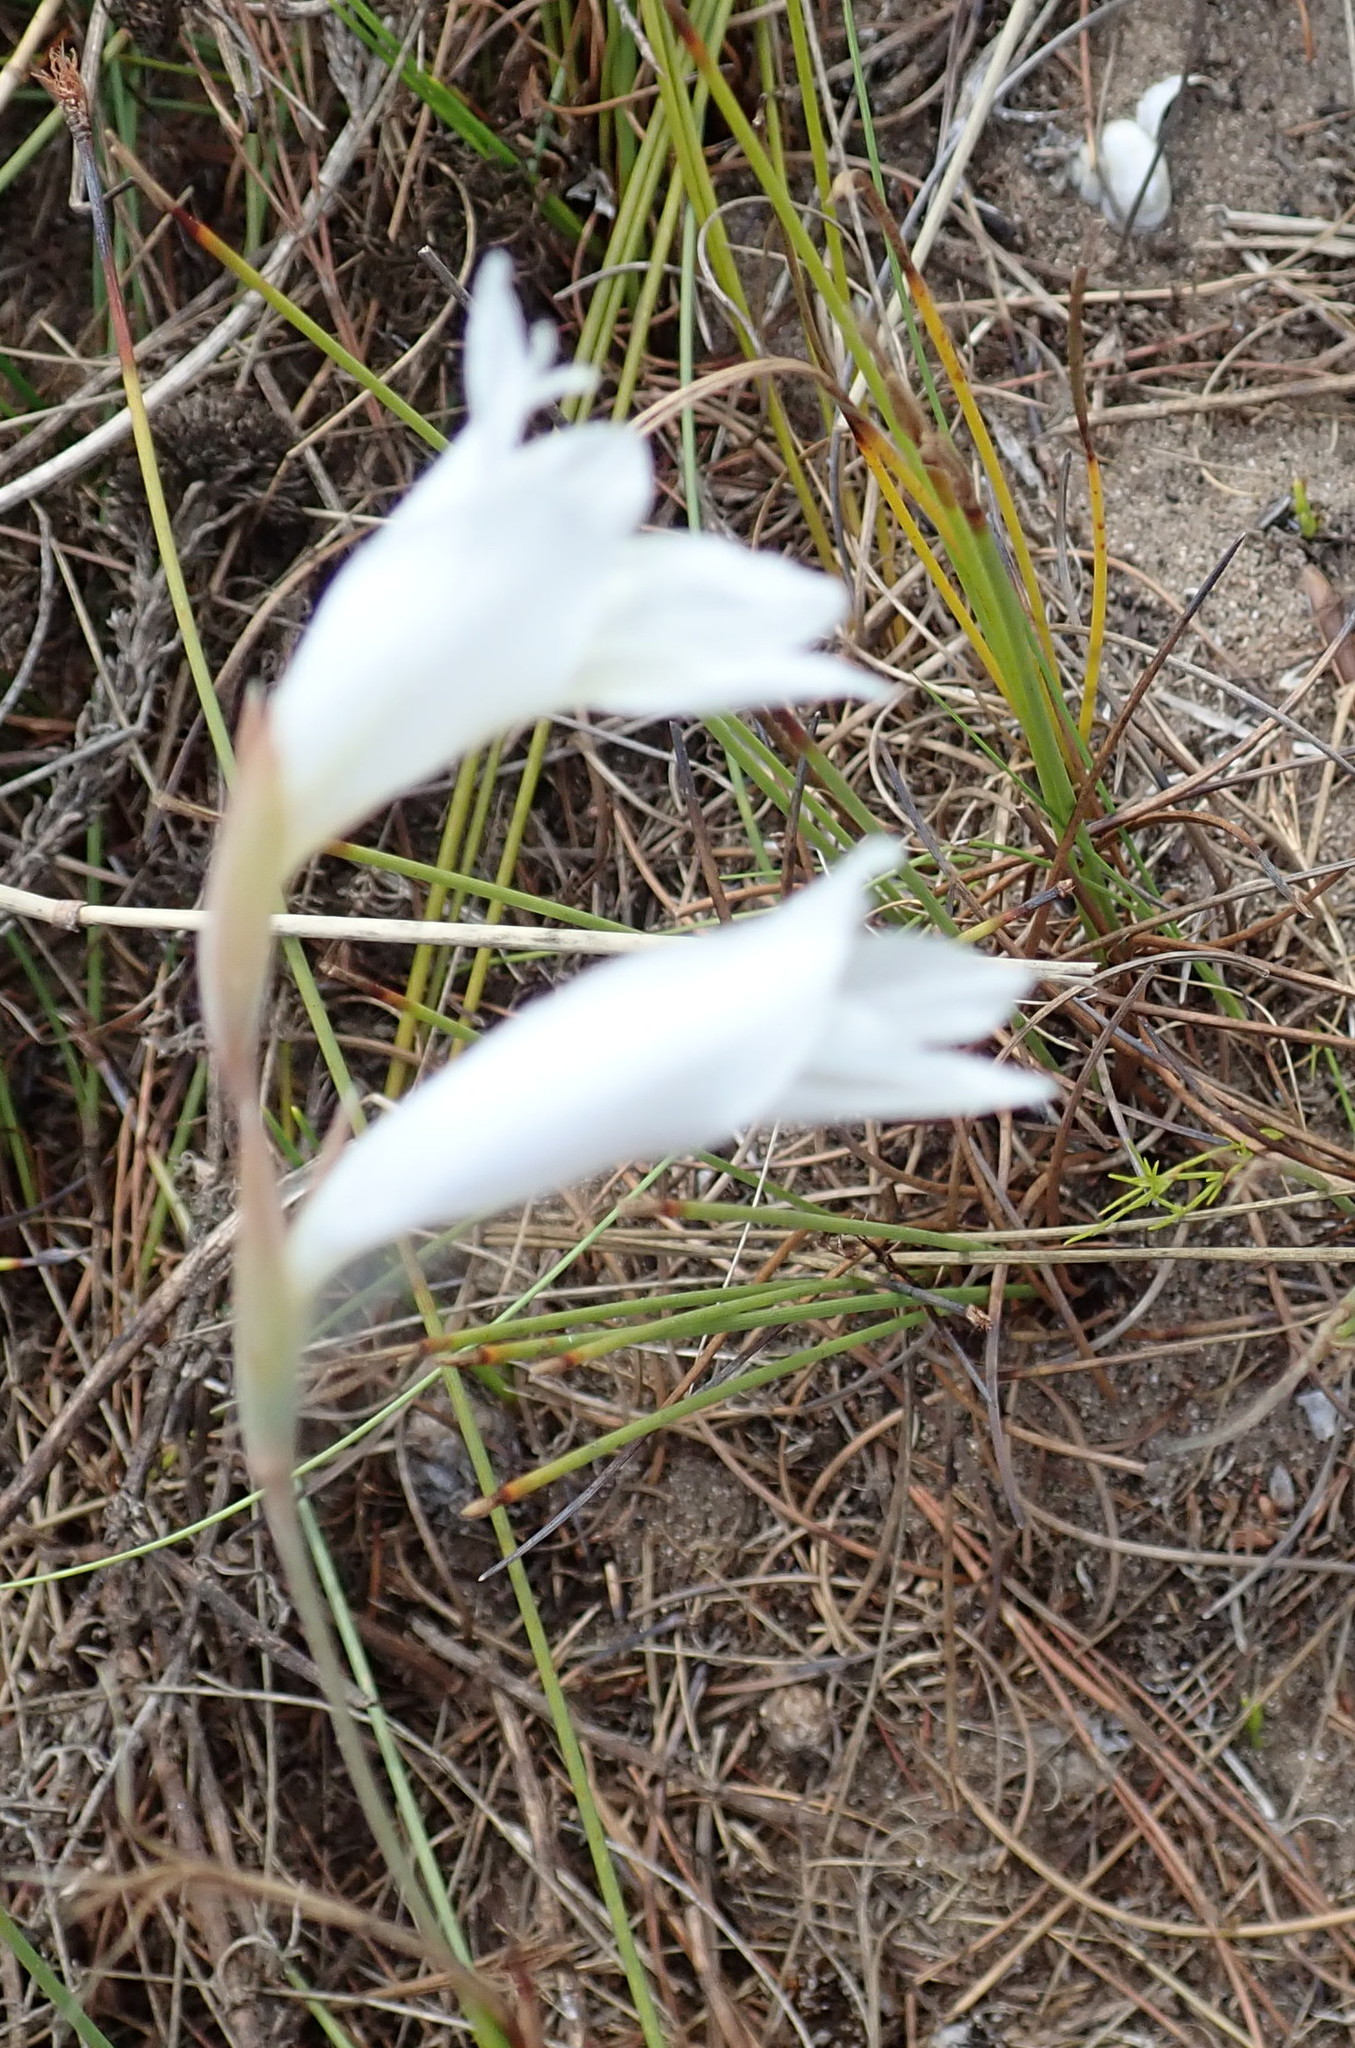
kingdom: Plantae
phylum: Tracheophyta
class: Liliopsida
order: Asparagales
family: Iridaceae
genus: Gladiolus
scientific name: Gladiolus vaginatus
